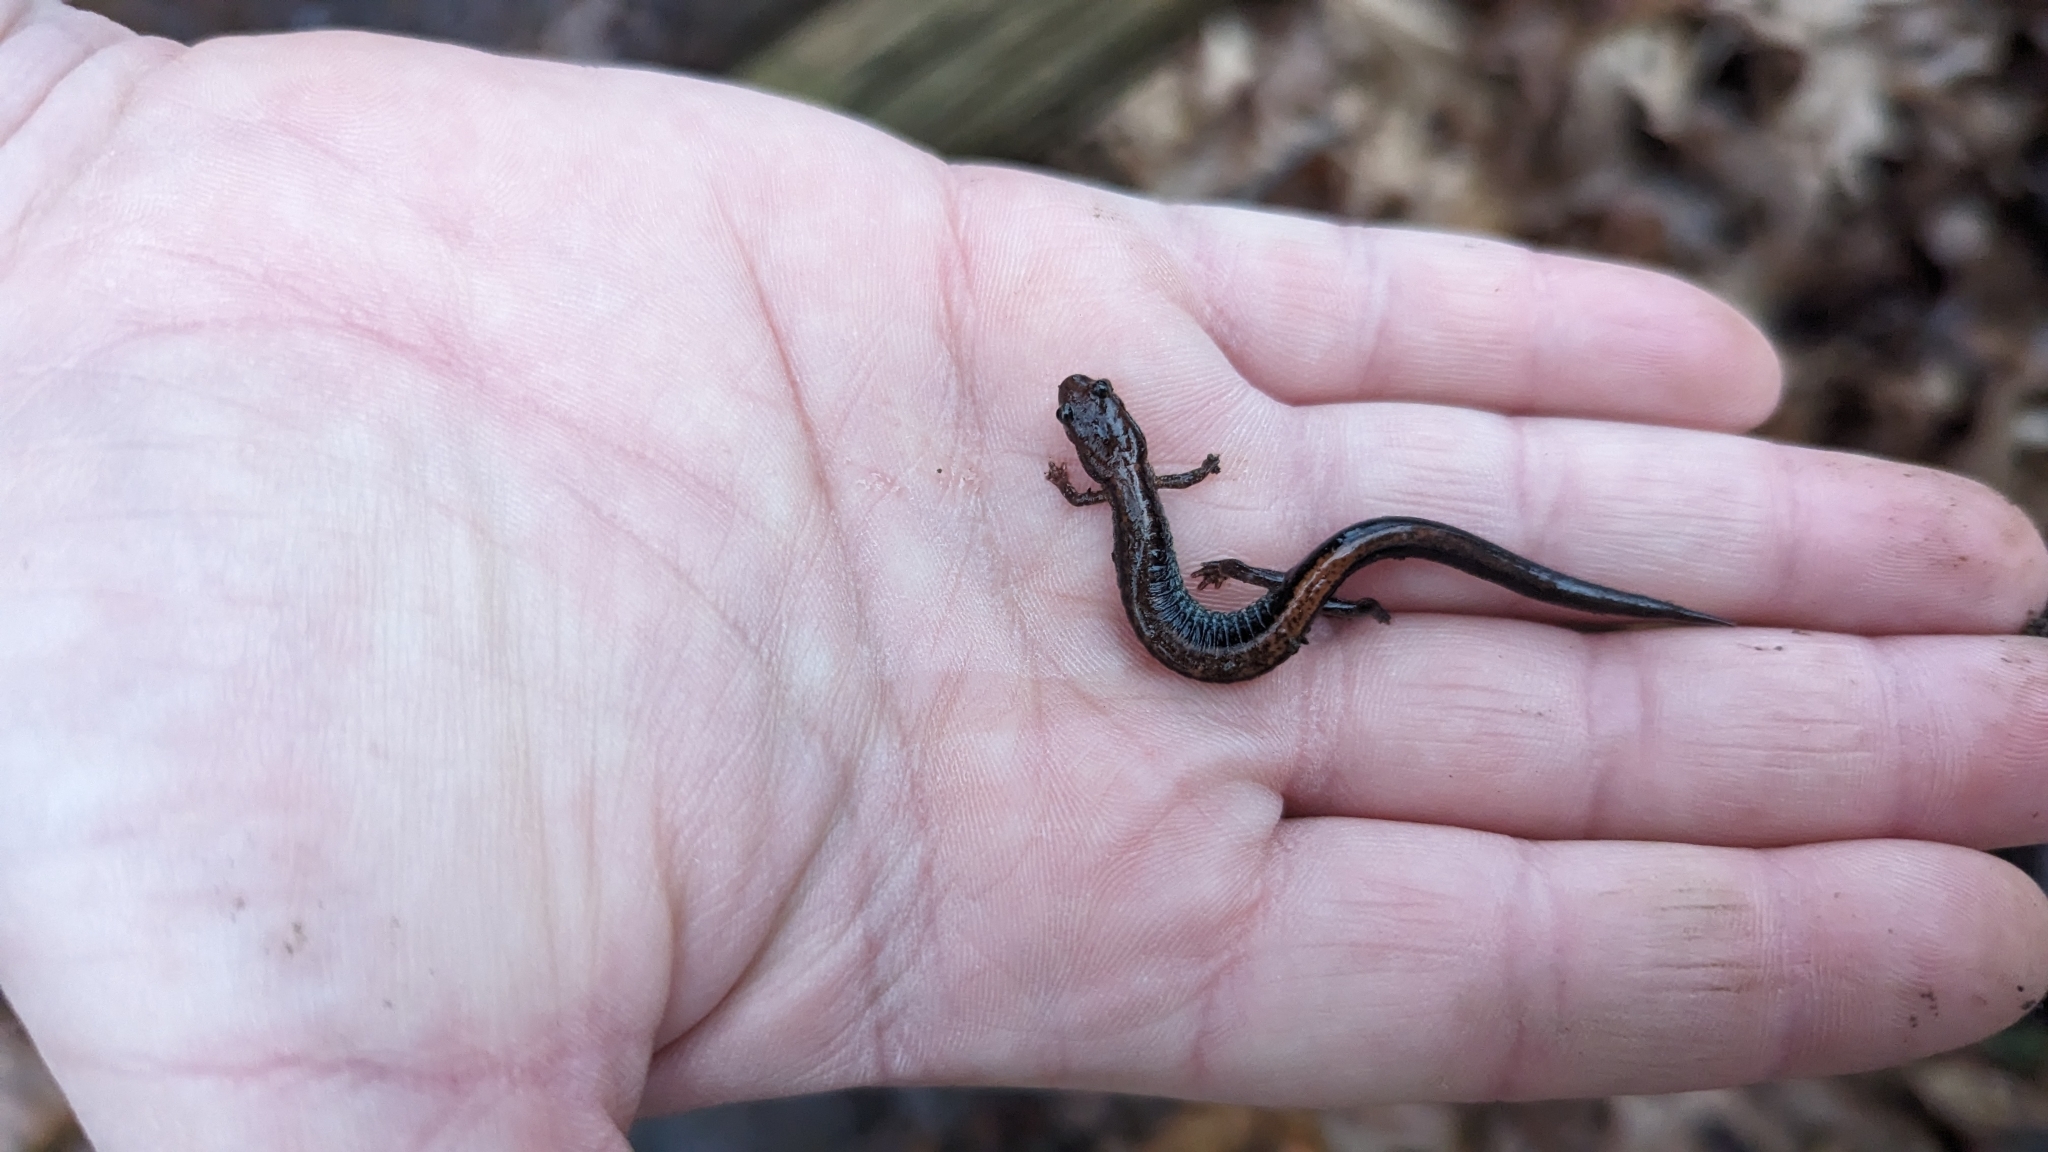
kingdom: Animalia
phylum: Chordata
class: Amphibia
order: Caudata
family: Plethodontidae
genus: Plethodon
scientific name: Plethodon cinereus
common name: Redback salamander
